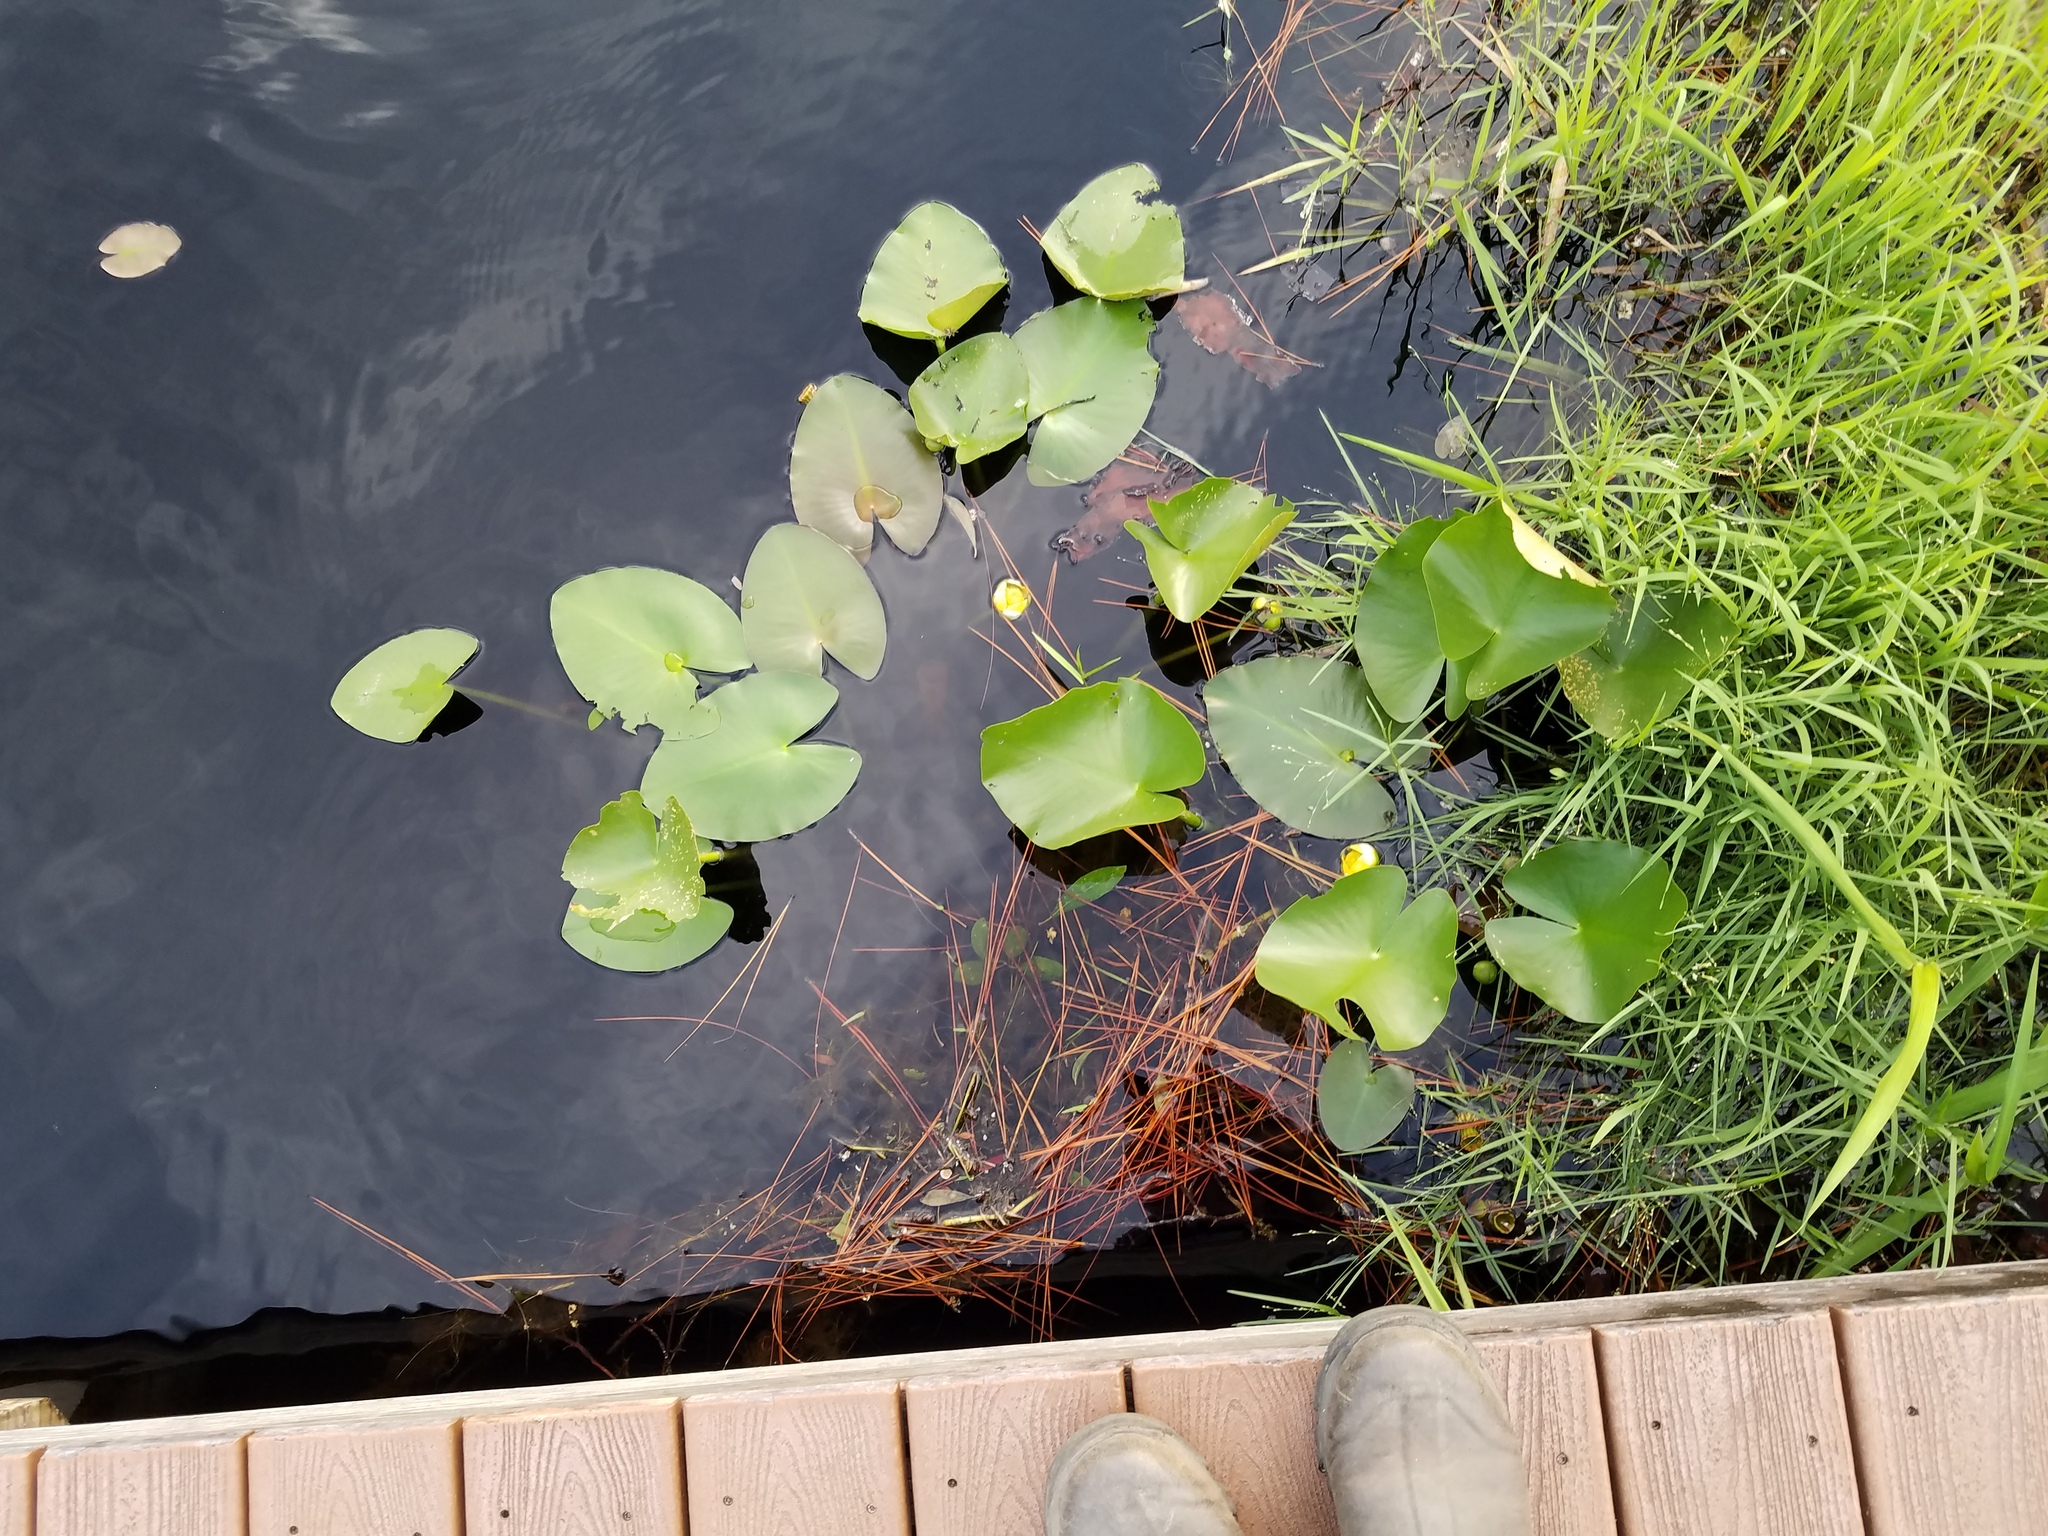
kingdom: Plantae
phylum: Tracheophyta
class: Magnoliopsida
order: Nymphaeales
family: Nymphaeaceae
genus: Nuphar
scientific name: Nuphar advena
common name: Spatter-dock
